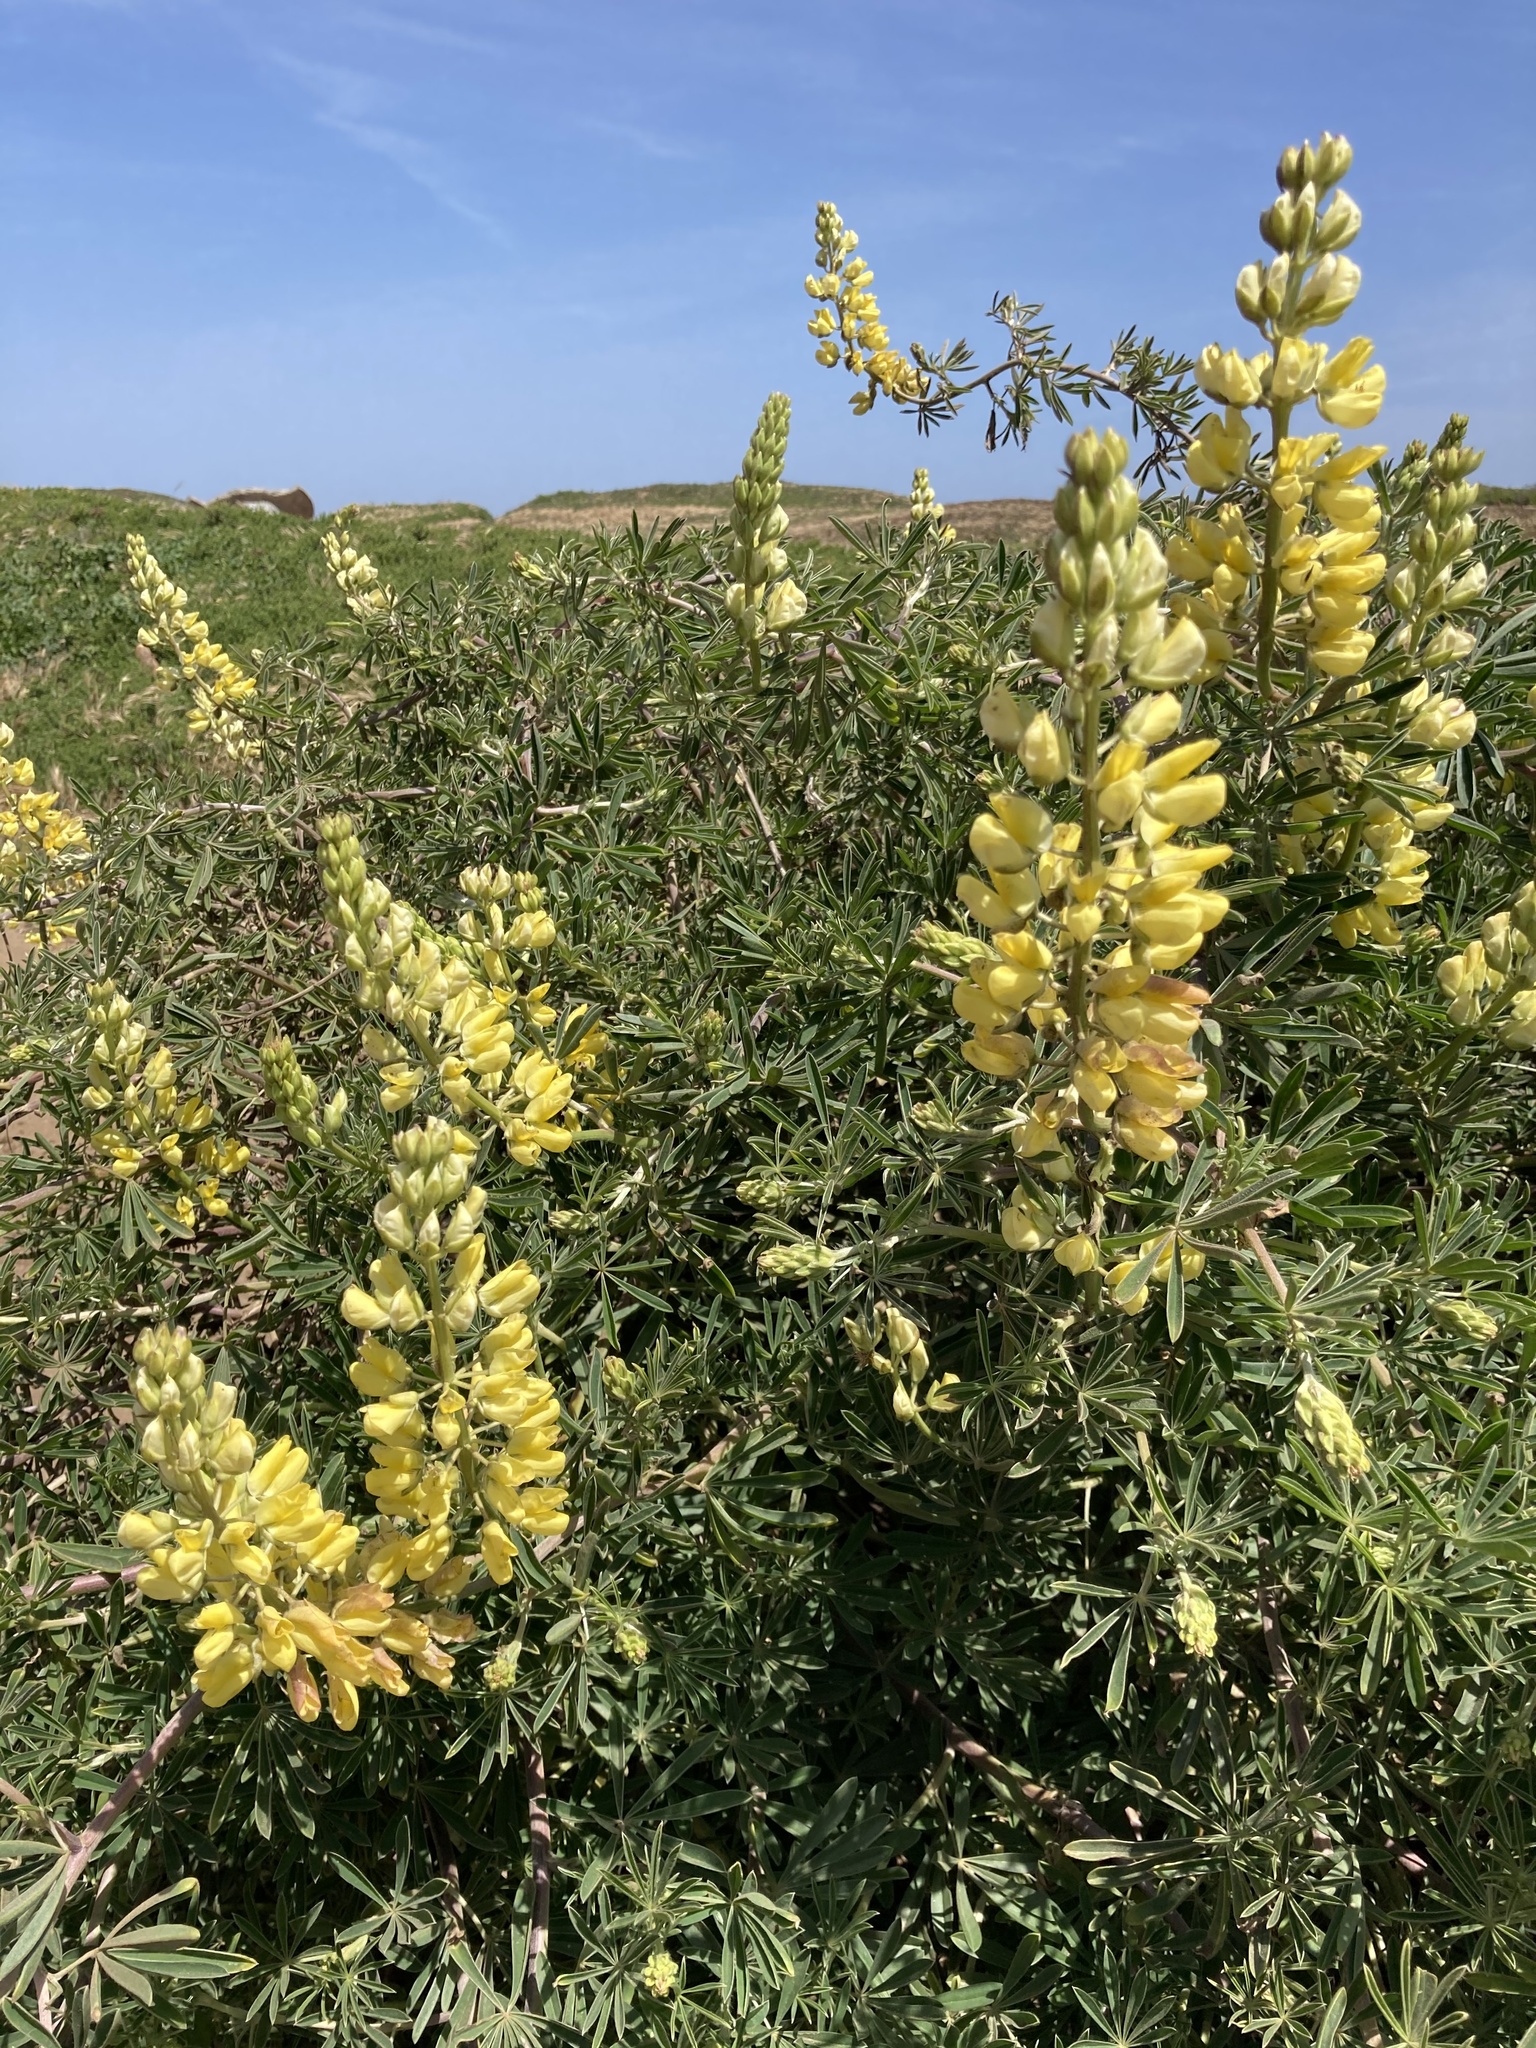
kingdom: Plantae
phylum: Tracheophyta
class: Magnoliopsida
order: Fabales
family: Fabaceae
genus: Lupinus
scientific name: Lupinus arboreus
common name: Yellow bush lupine
